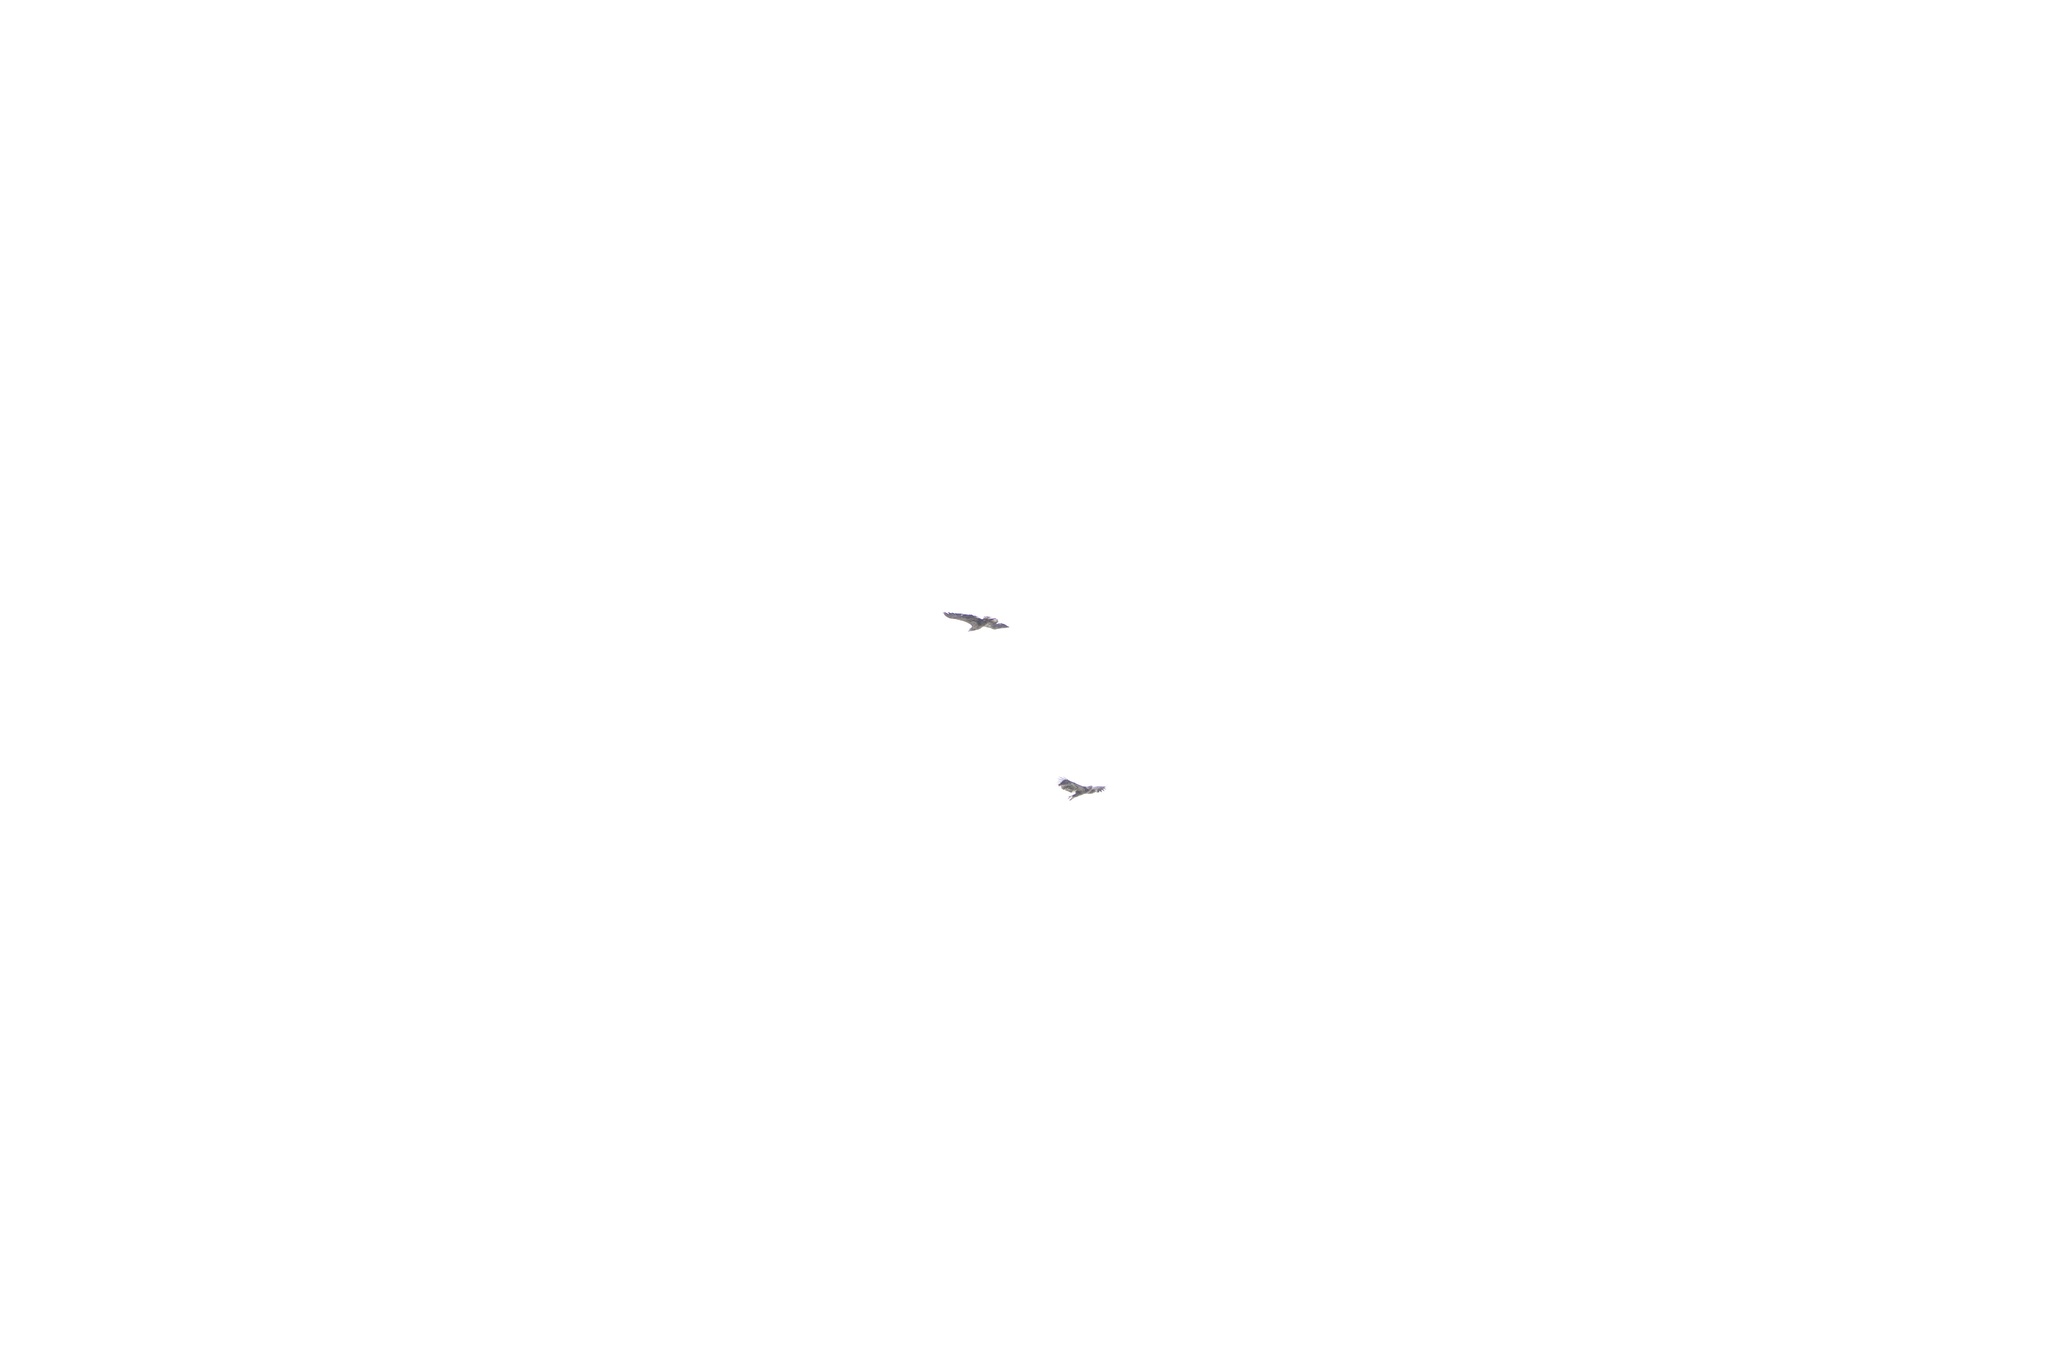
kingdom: Animalia
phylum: Chordata
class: Aves
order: Accipitriformes
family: Accipitridae
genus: Haliaeetus
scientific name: Haliaeetus leucocephalus
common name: Bald eagle
